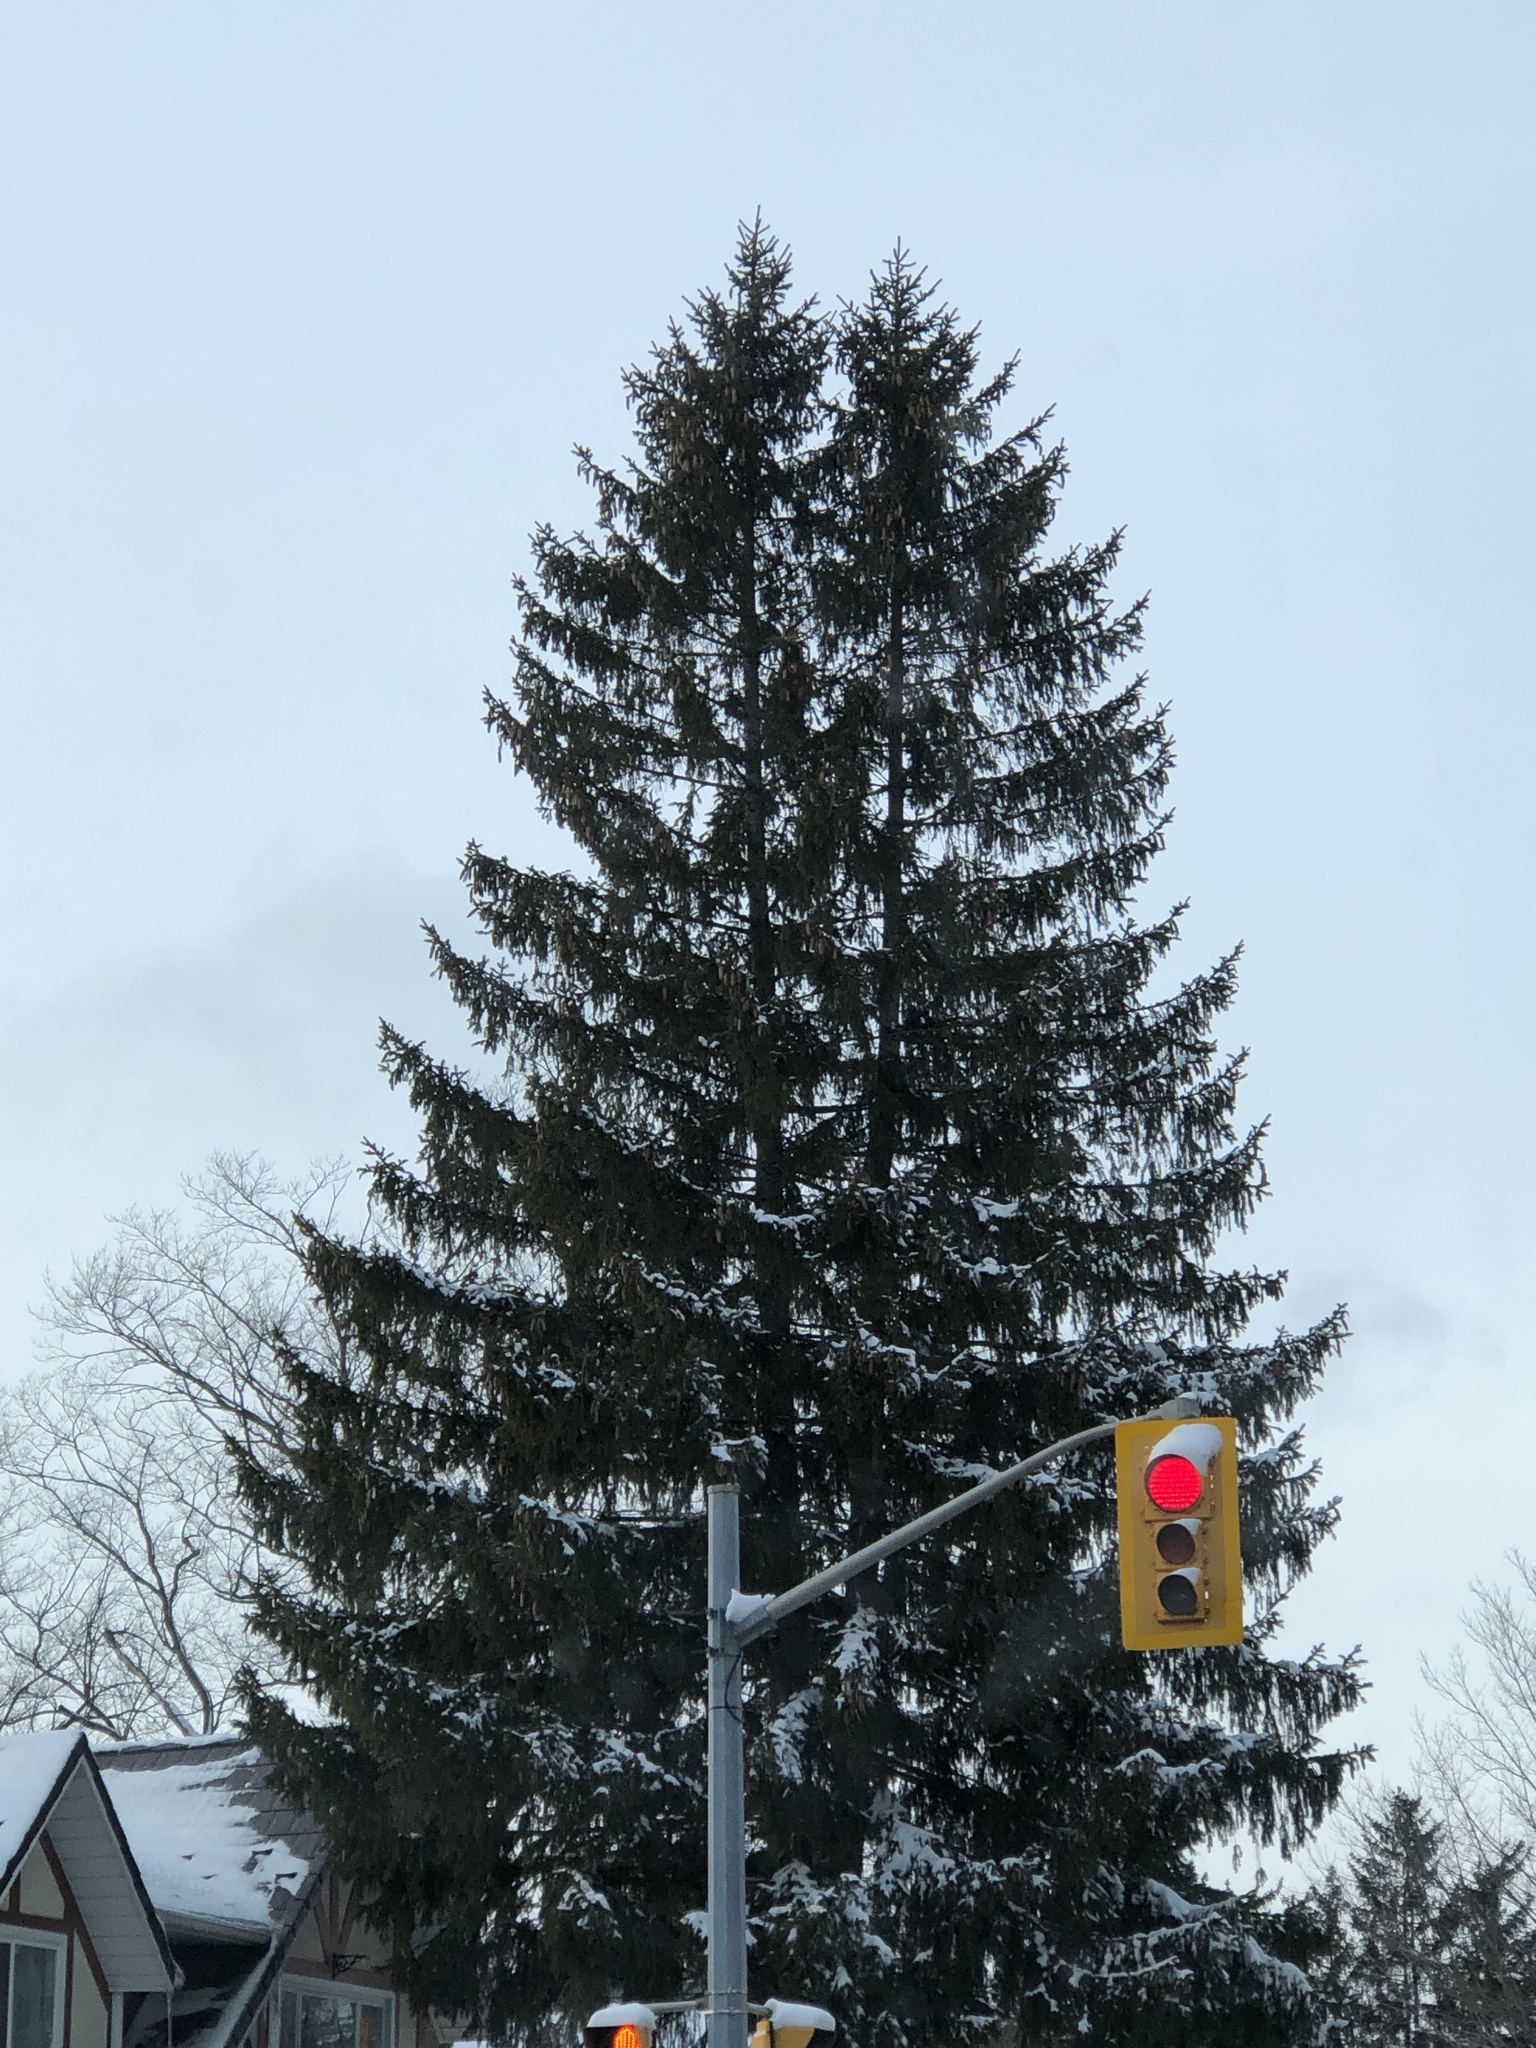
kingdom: Plantae
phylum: Tracheophyta
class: Pinopsida
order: Pinales
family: Pinaceae
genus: Picea
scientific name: Picea abies
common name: Norway spruce
